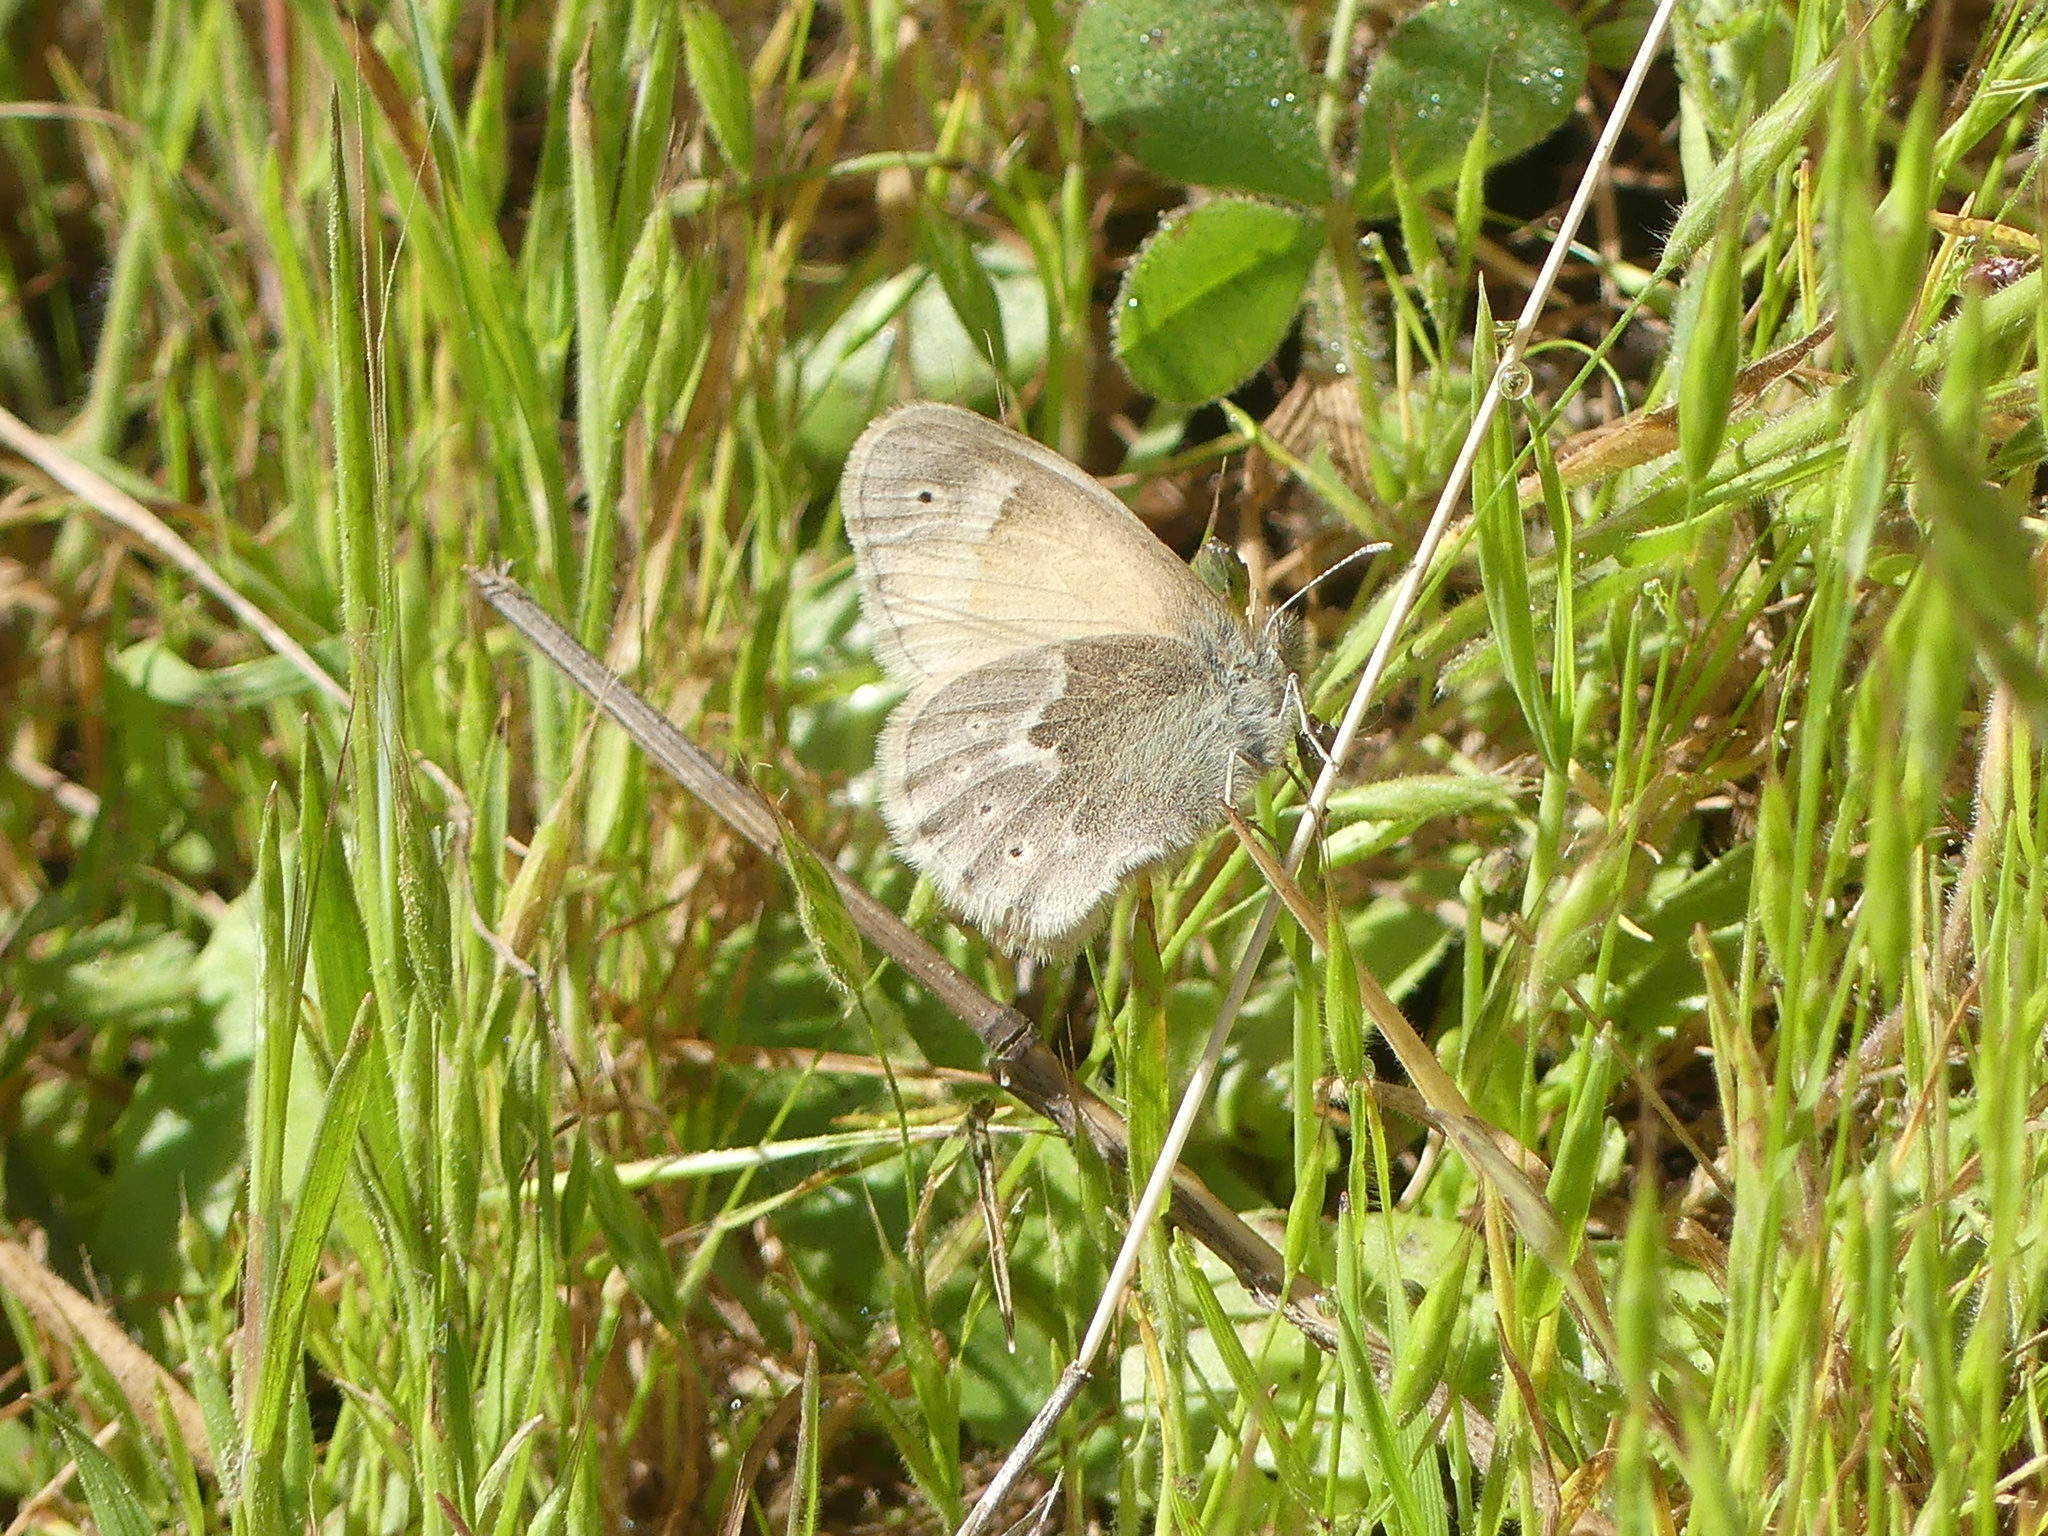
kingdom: Animalia
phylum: Arthropoda
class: Insecta
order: Lepidoptera
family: Nymphalidae
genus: Coenonympha
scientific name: Coenonympha california
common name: Common ringlet
